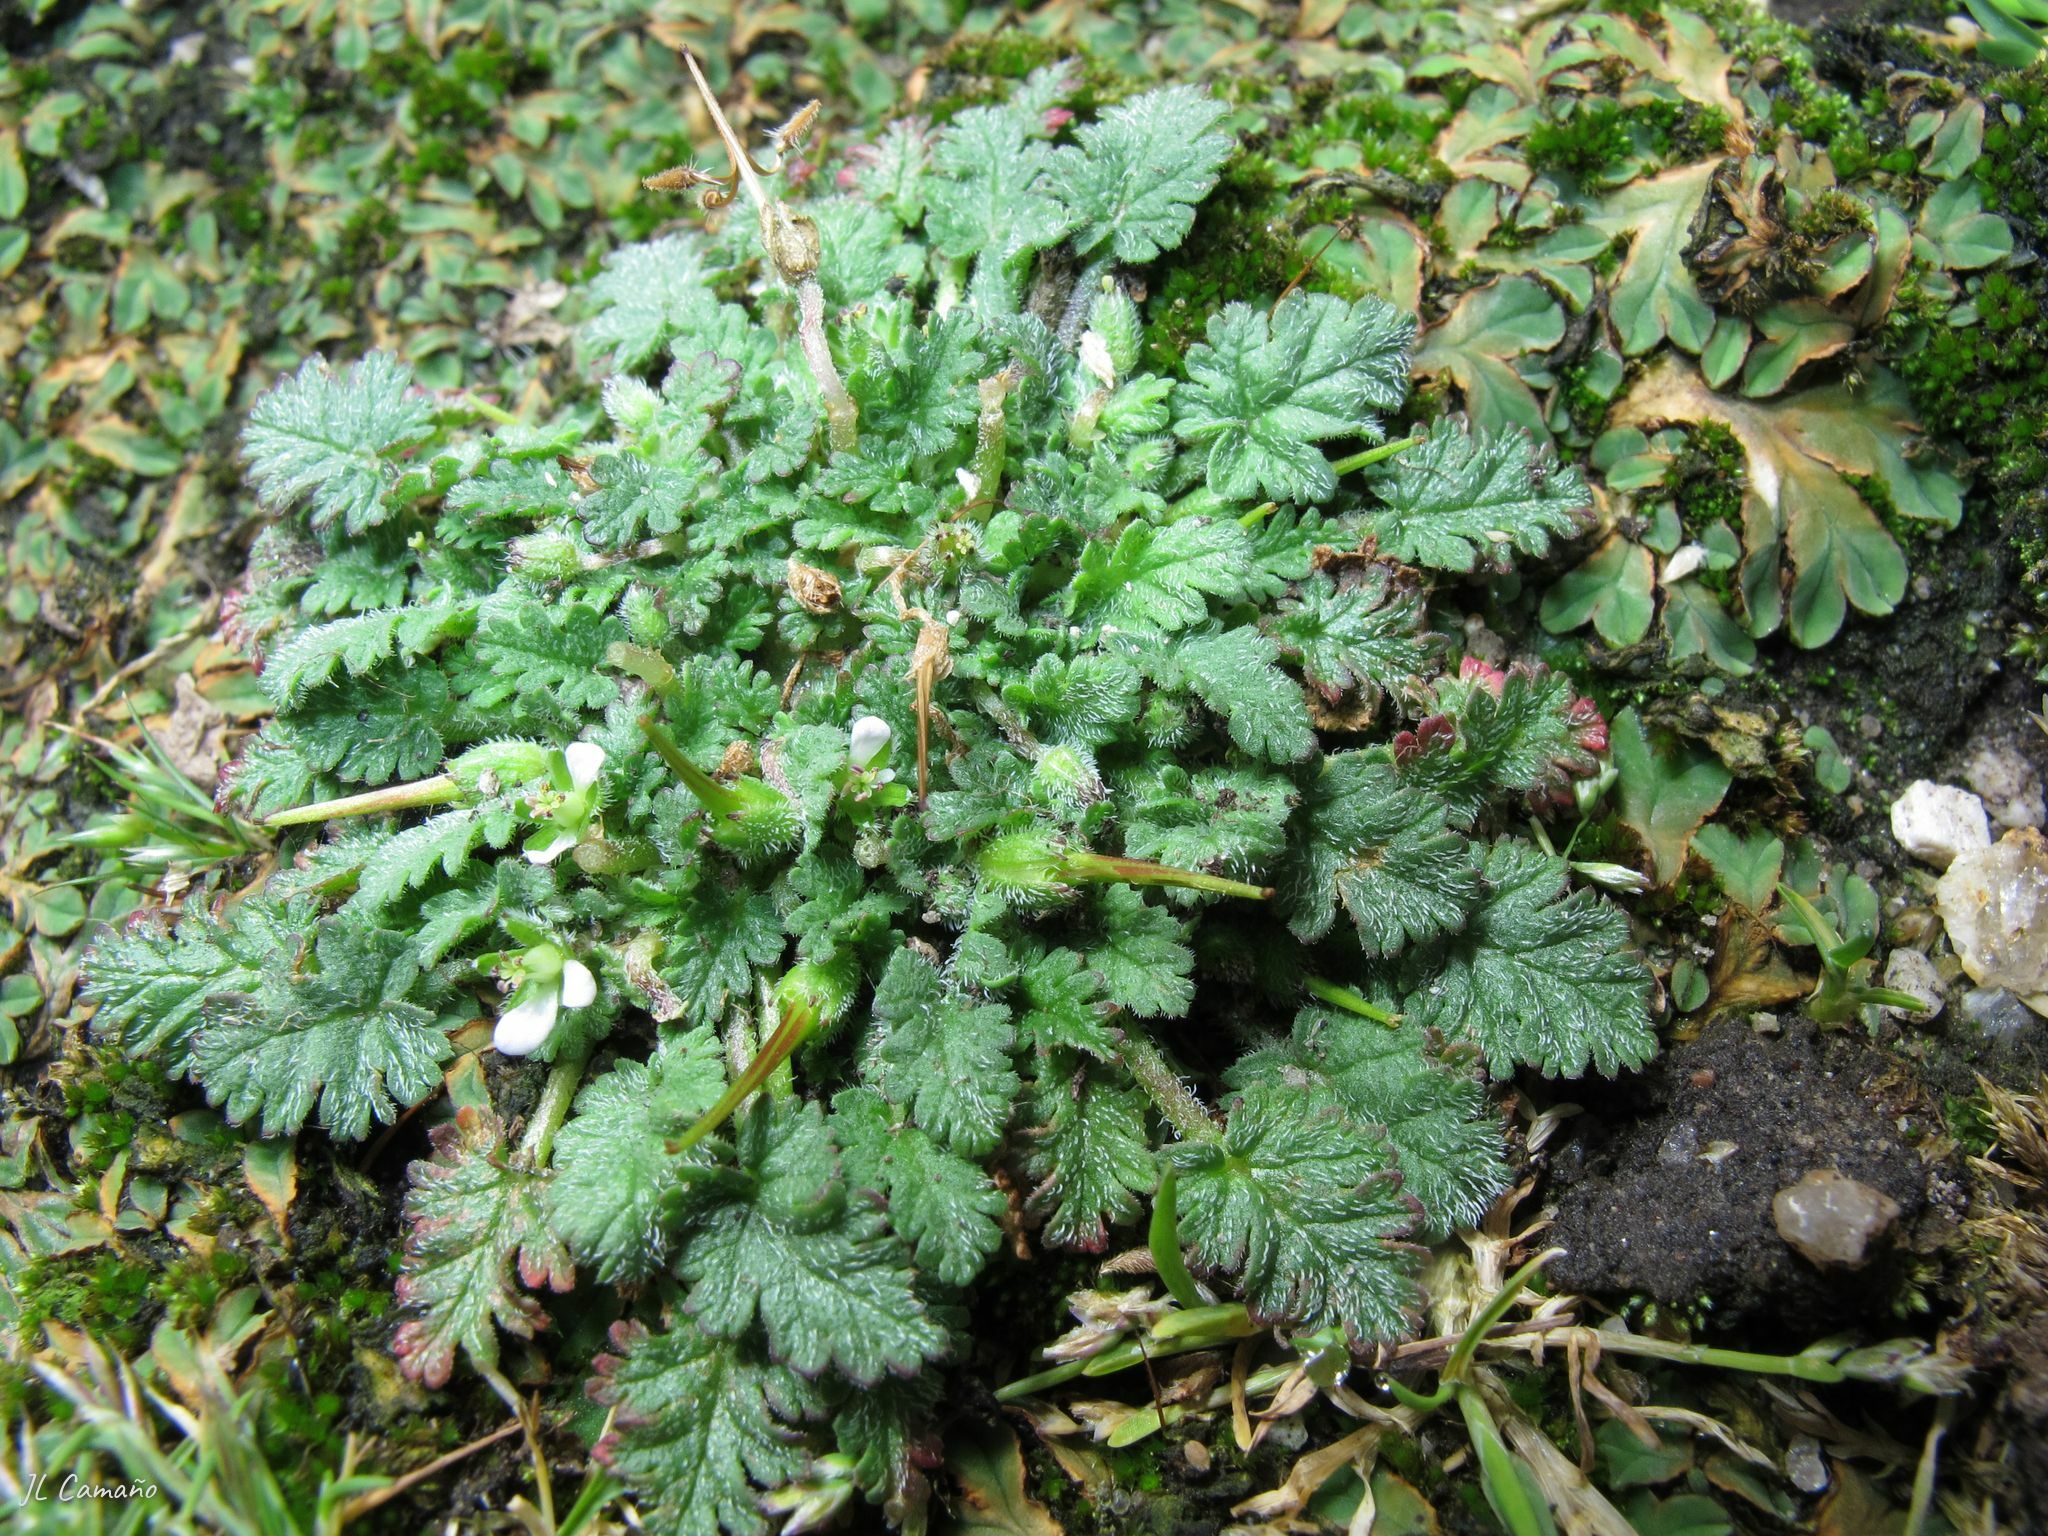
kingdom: Plantae
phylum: Tracheophyta
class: Magnoliopsida
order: Geraniales
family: Geraniaceae
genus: Erodium
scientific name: Erodium maritimum
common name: Sea stork's-bill
